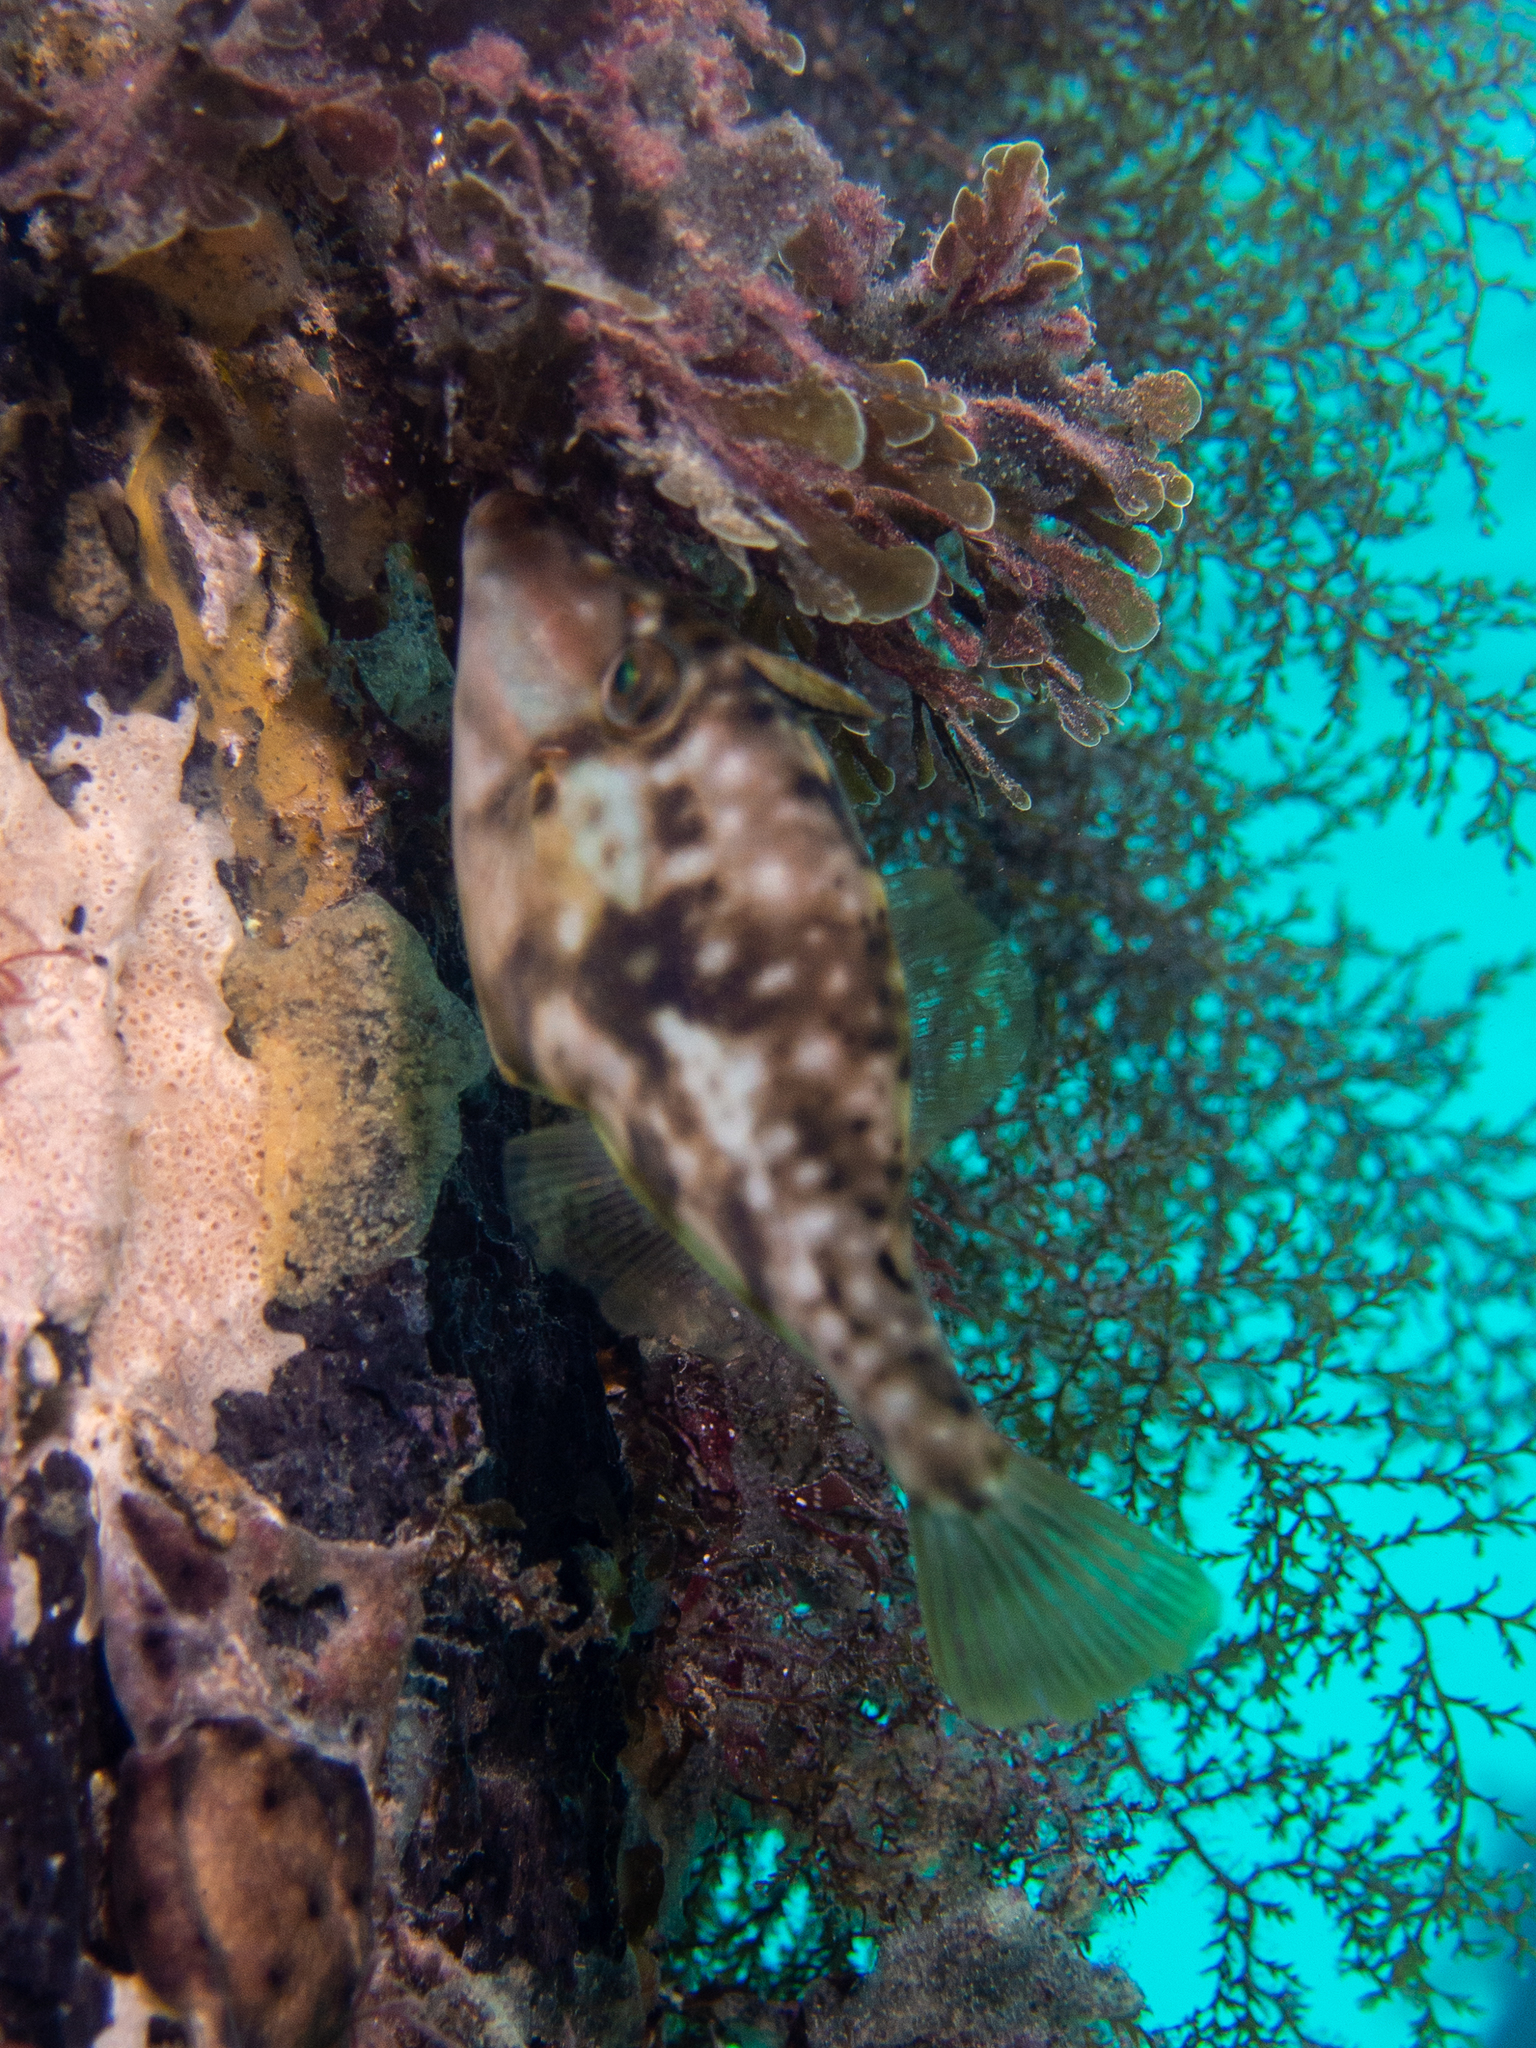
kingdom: Animalia
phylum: Chordata
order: Tetraodontiformes
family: Monacanthidae
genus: Acanthaluteres
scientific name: Acanthaluteres vittiger
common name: Brown leatherjacket
